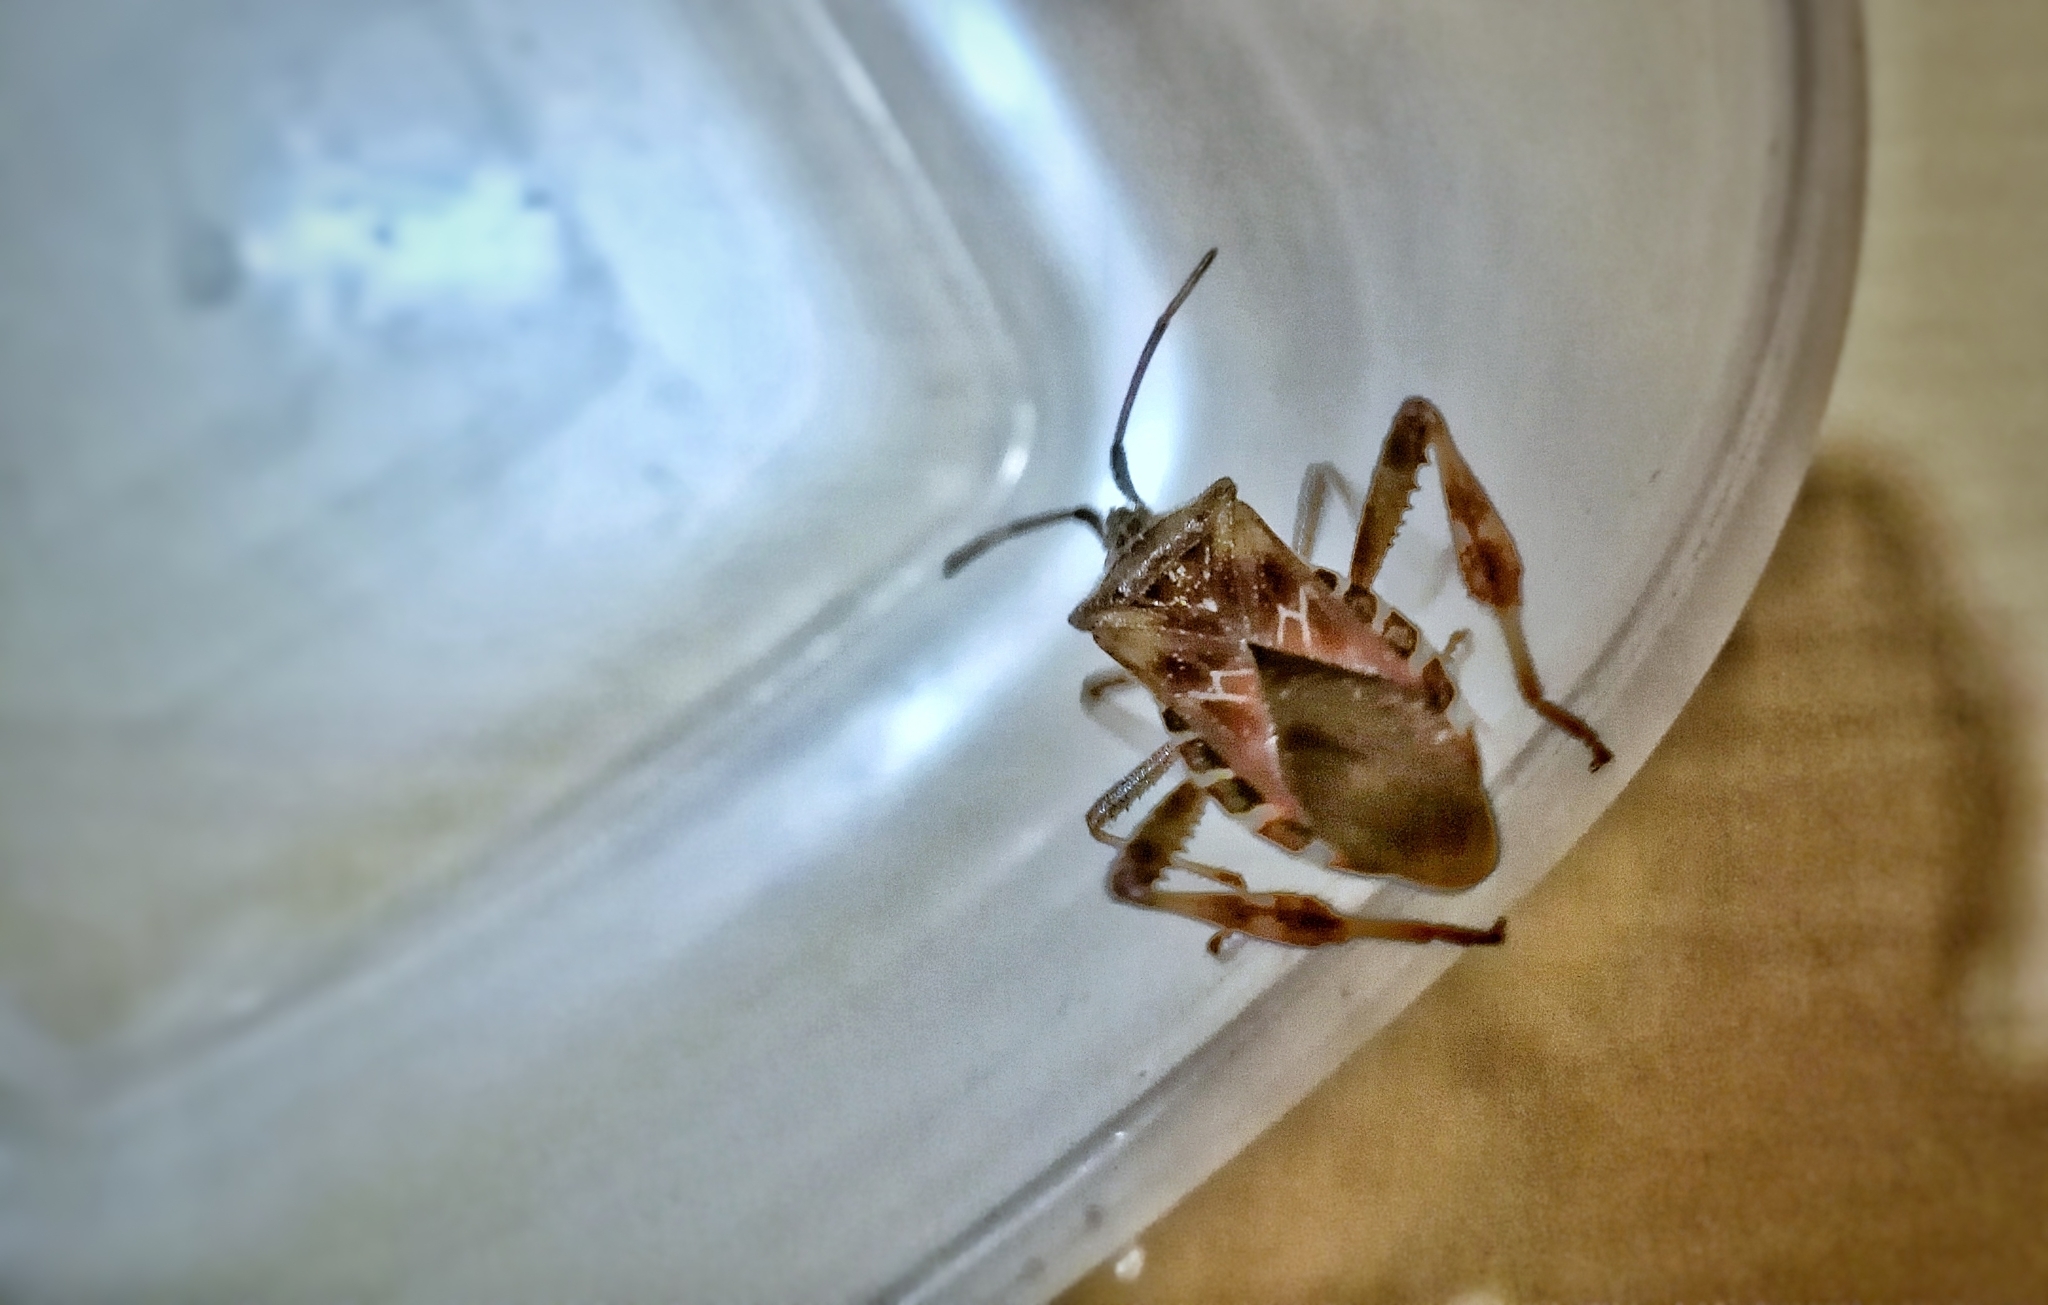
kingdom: Animalia
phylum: Arthropoda
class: Insecta
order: Hemiptera
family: Coreidae
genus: Leptoglossus
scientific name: Leptoglossus occidentalis
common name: Western conifer-seed bug
